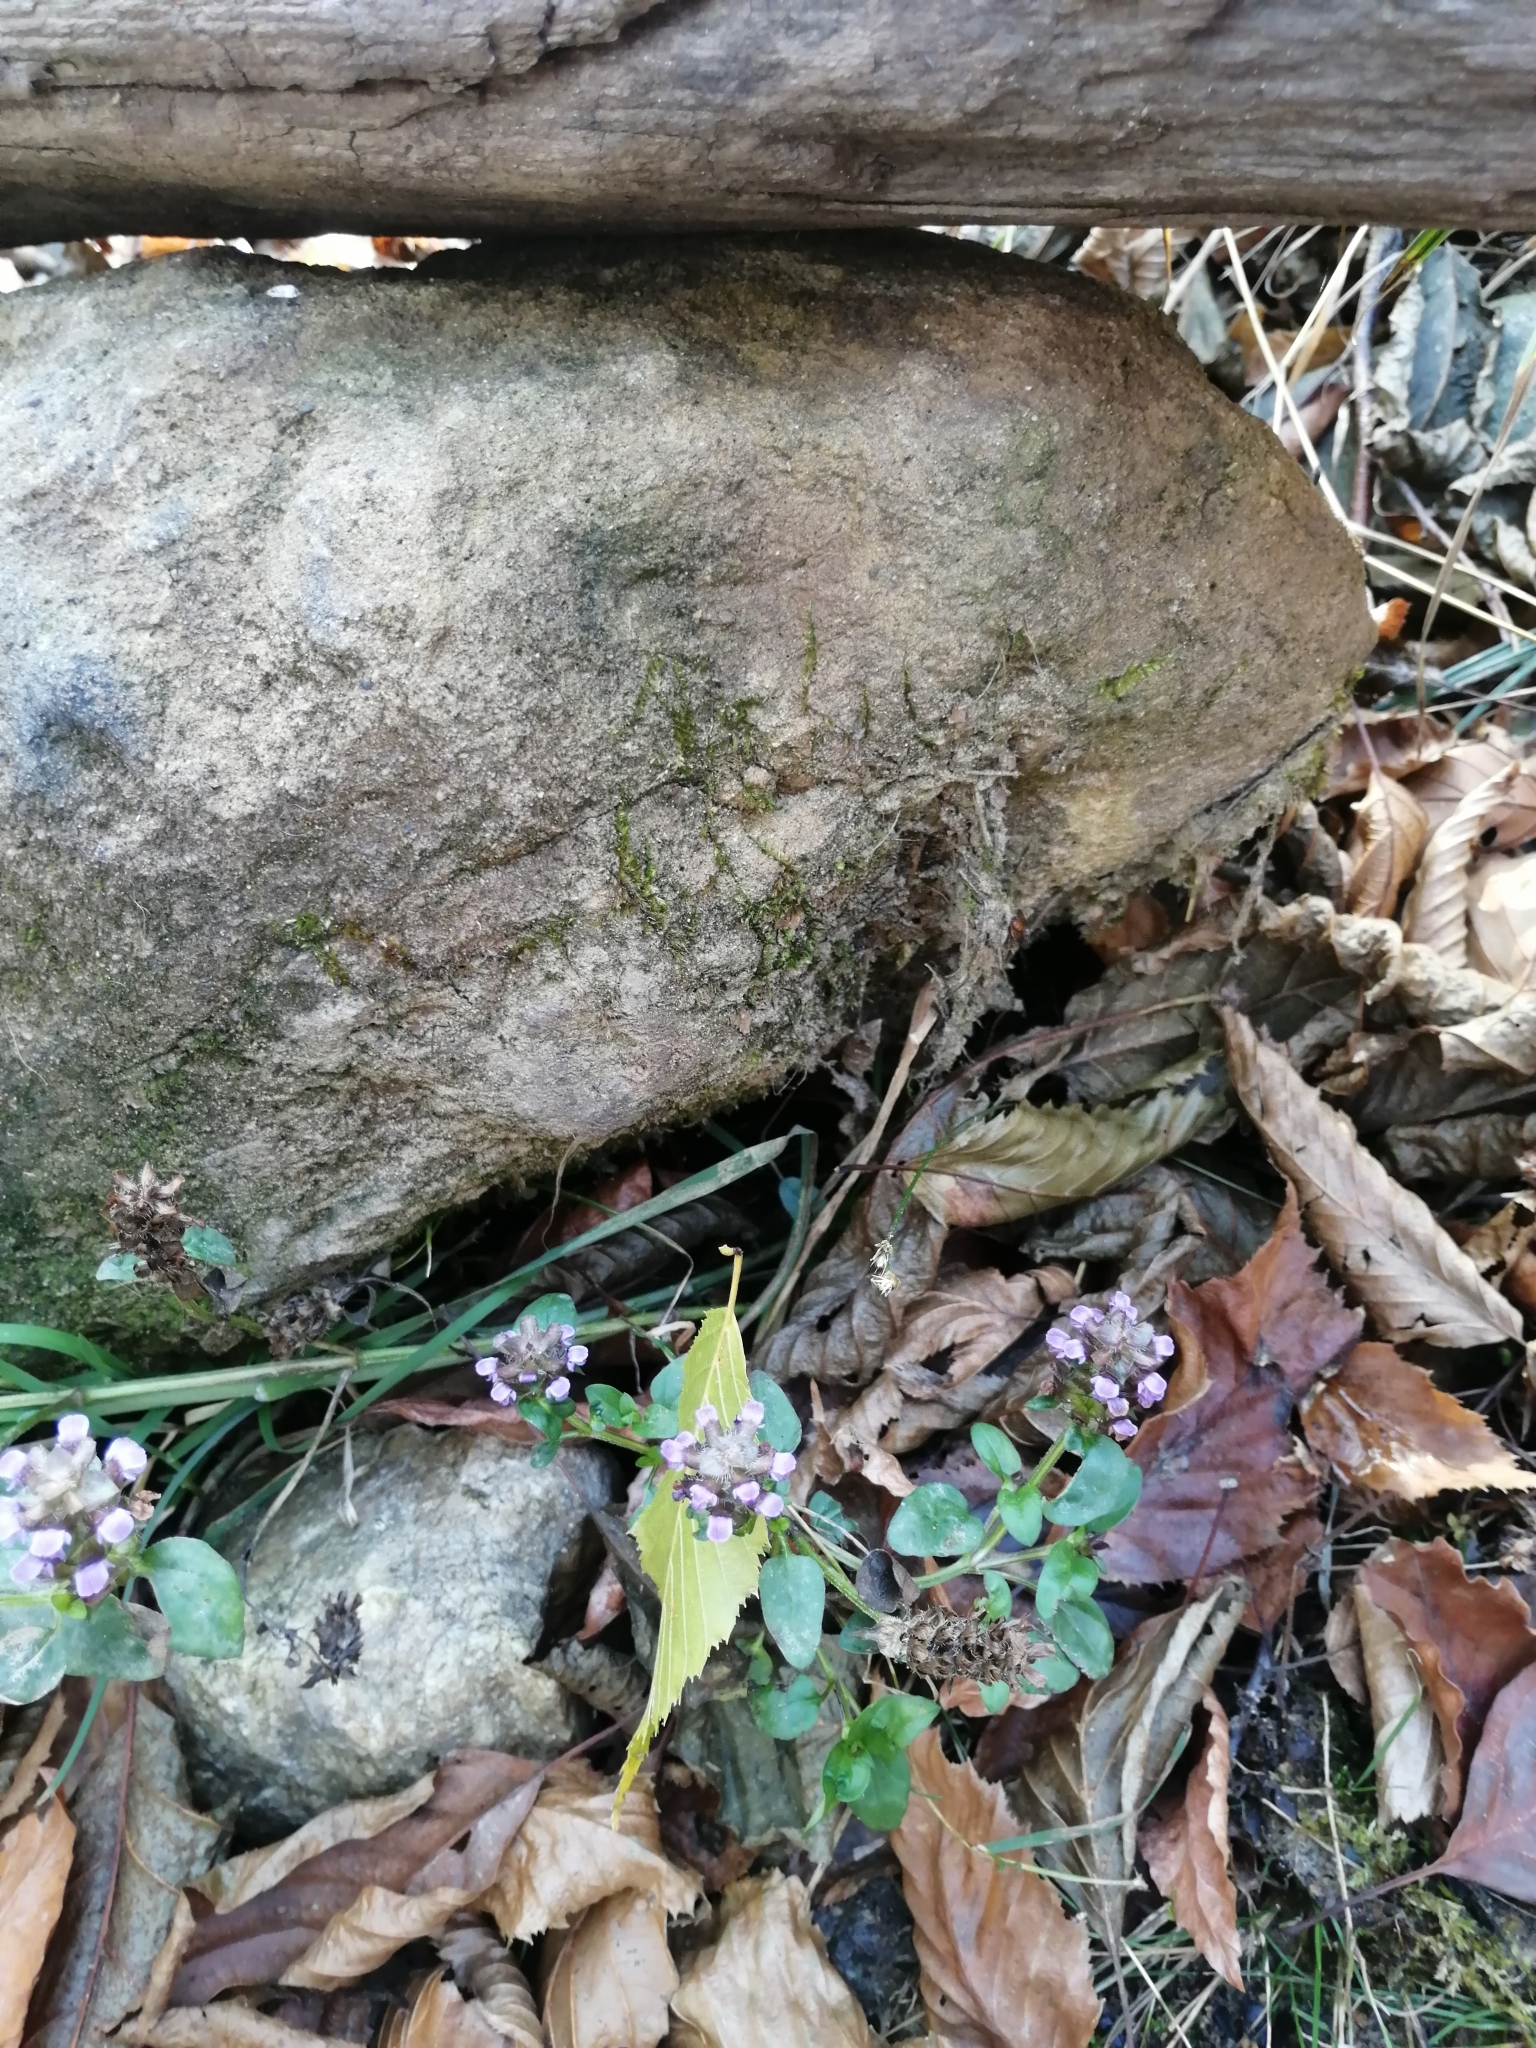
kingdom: Plantae
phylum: Tracheophyta
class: Magnoliopsida
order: Lamiales
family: Lamiaceae
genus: Prunella
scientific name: Prunella vulgaris
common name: Heal-all
